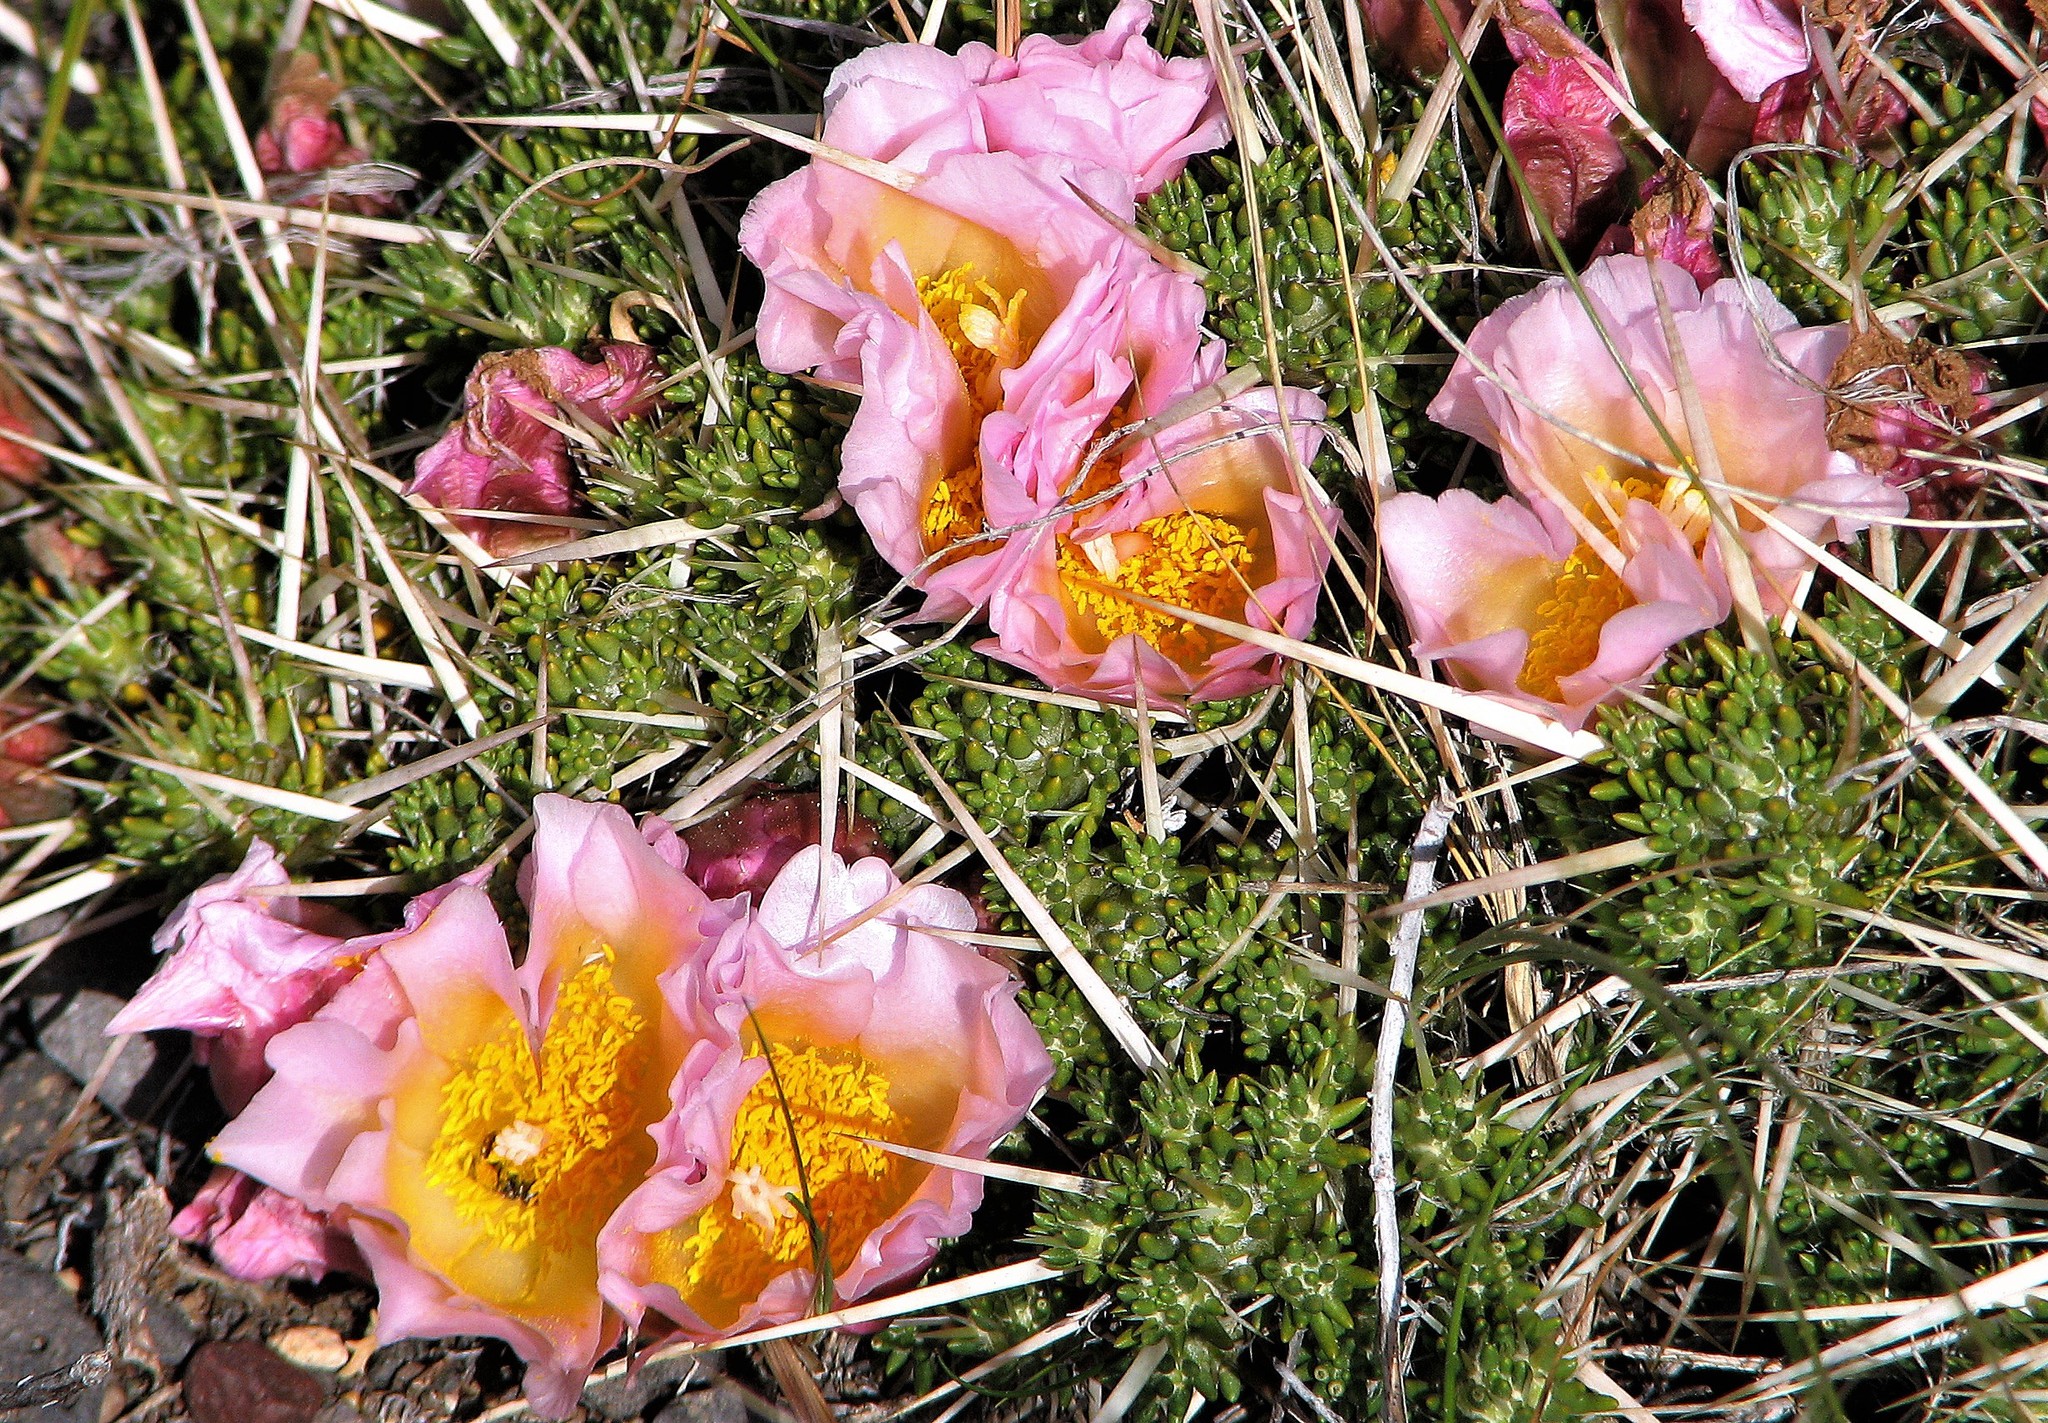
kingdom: Plantae
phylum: Tracheophyta
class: Magnoliopsida
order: Caryophyllales
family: Cactaceae
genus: Maihuenia
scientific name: Maihuenia patagonica
